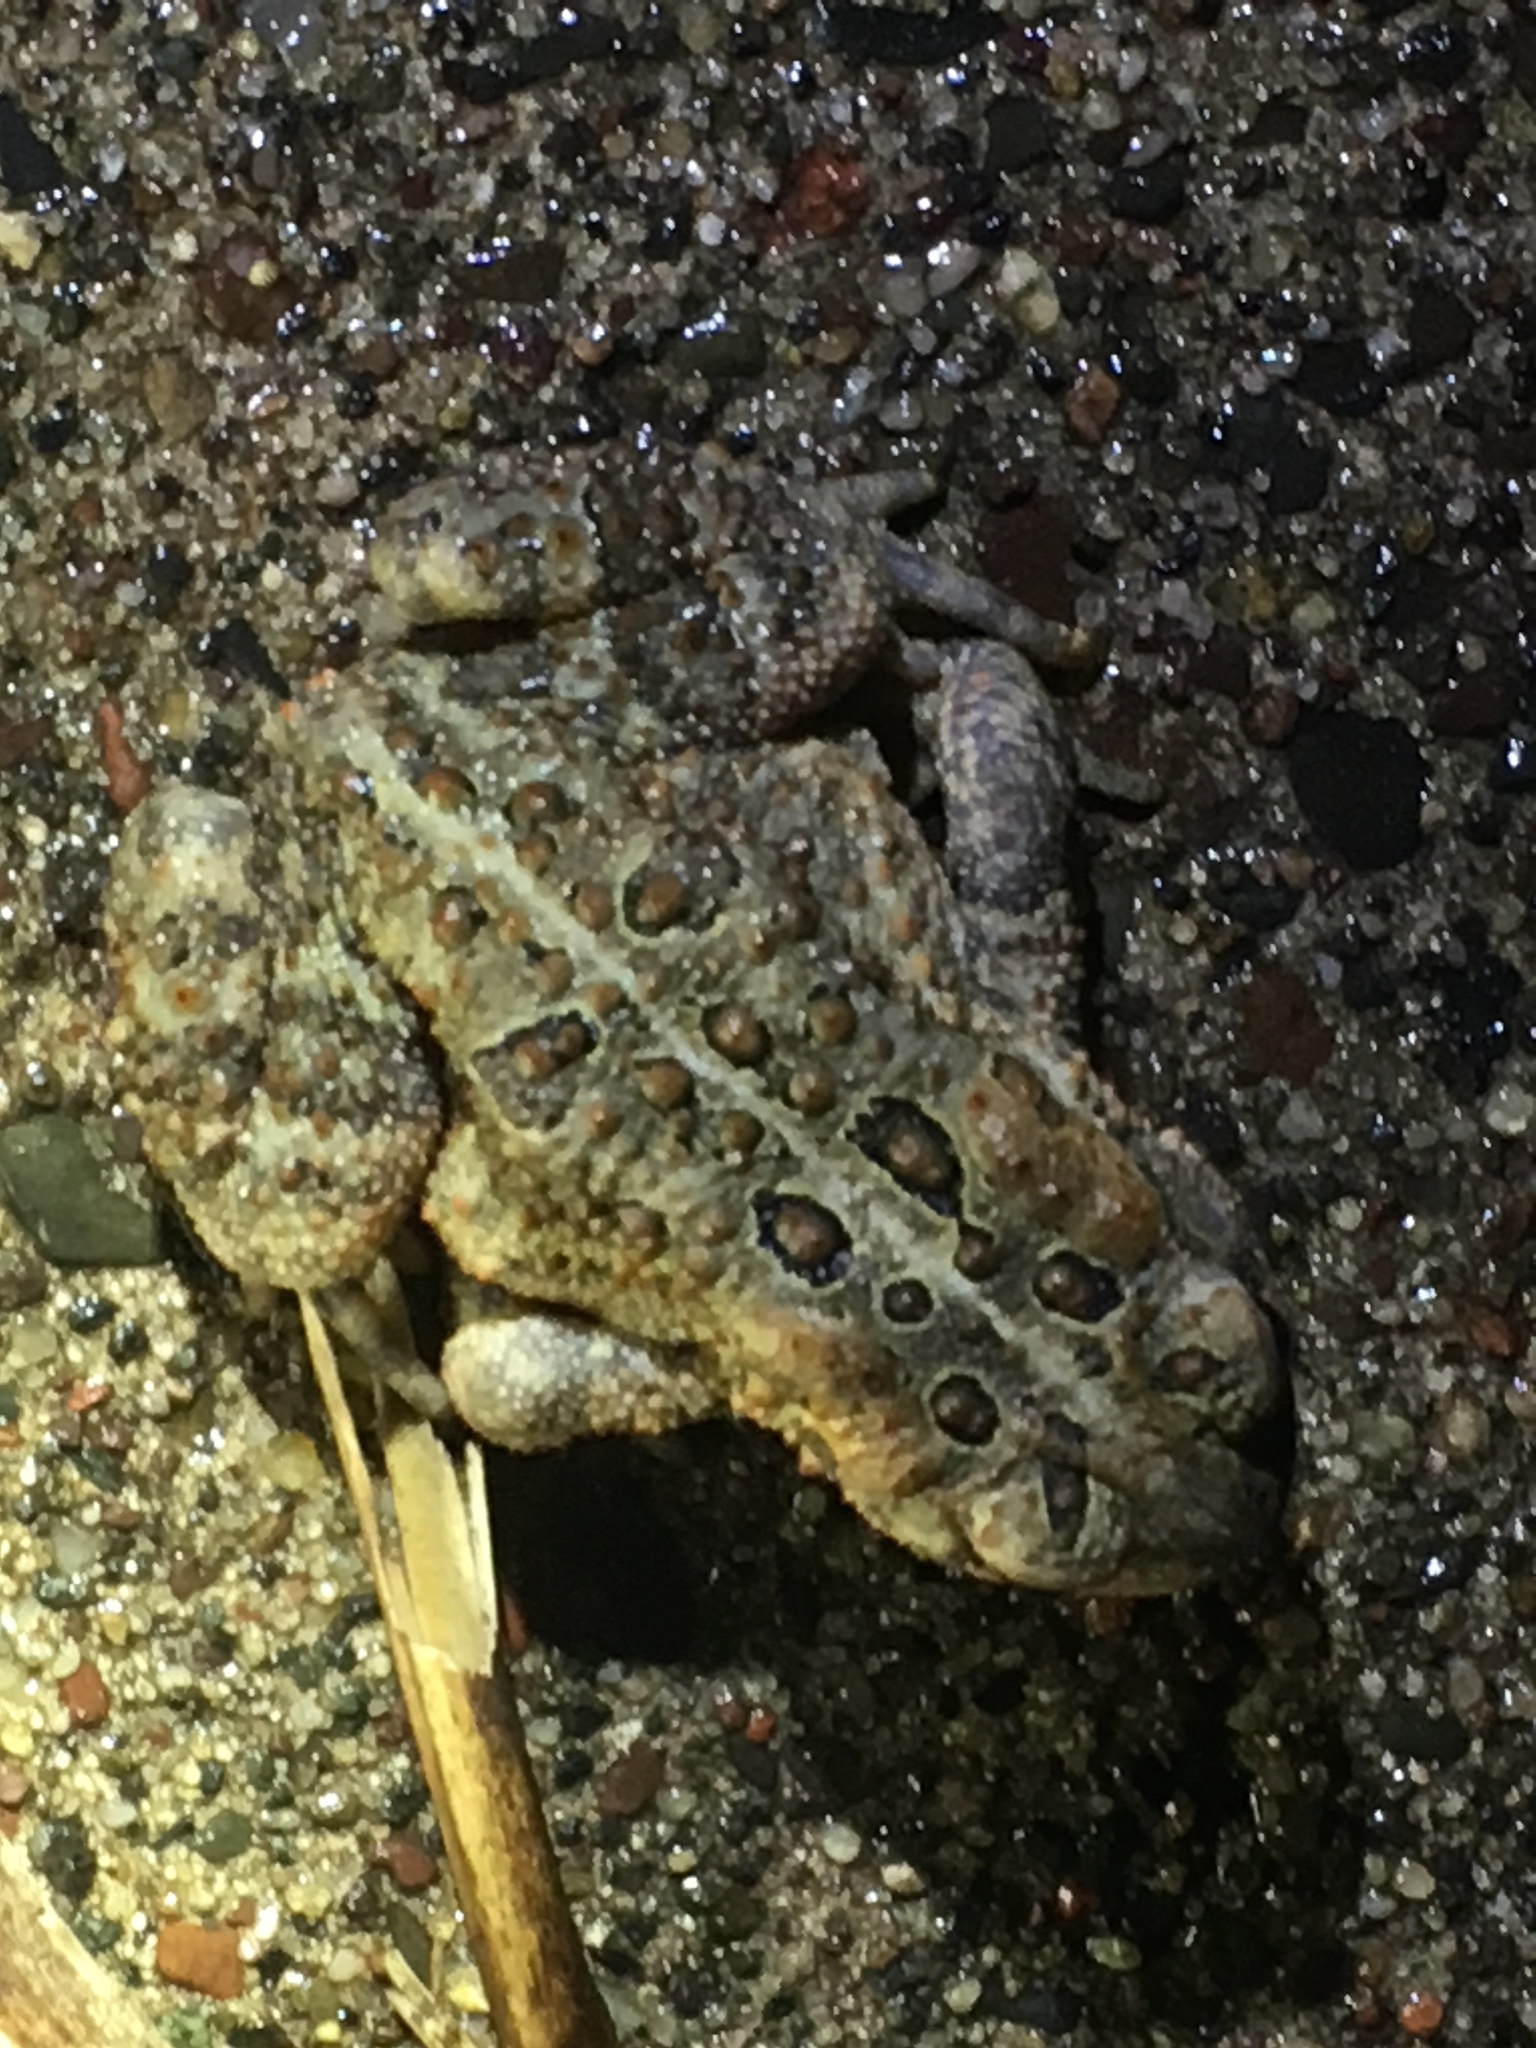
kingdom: Animalia
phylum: Chordata
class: Amphibia
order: Anura
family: Bufonidae
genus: Anaxyrus
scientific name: Anaxyrus americanus
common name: American toad
